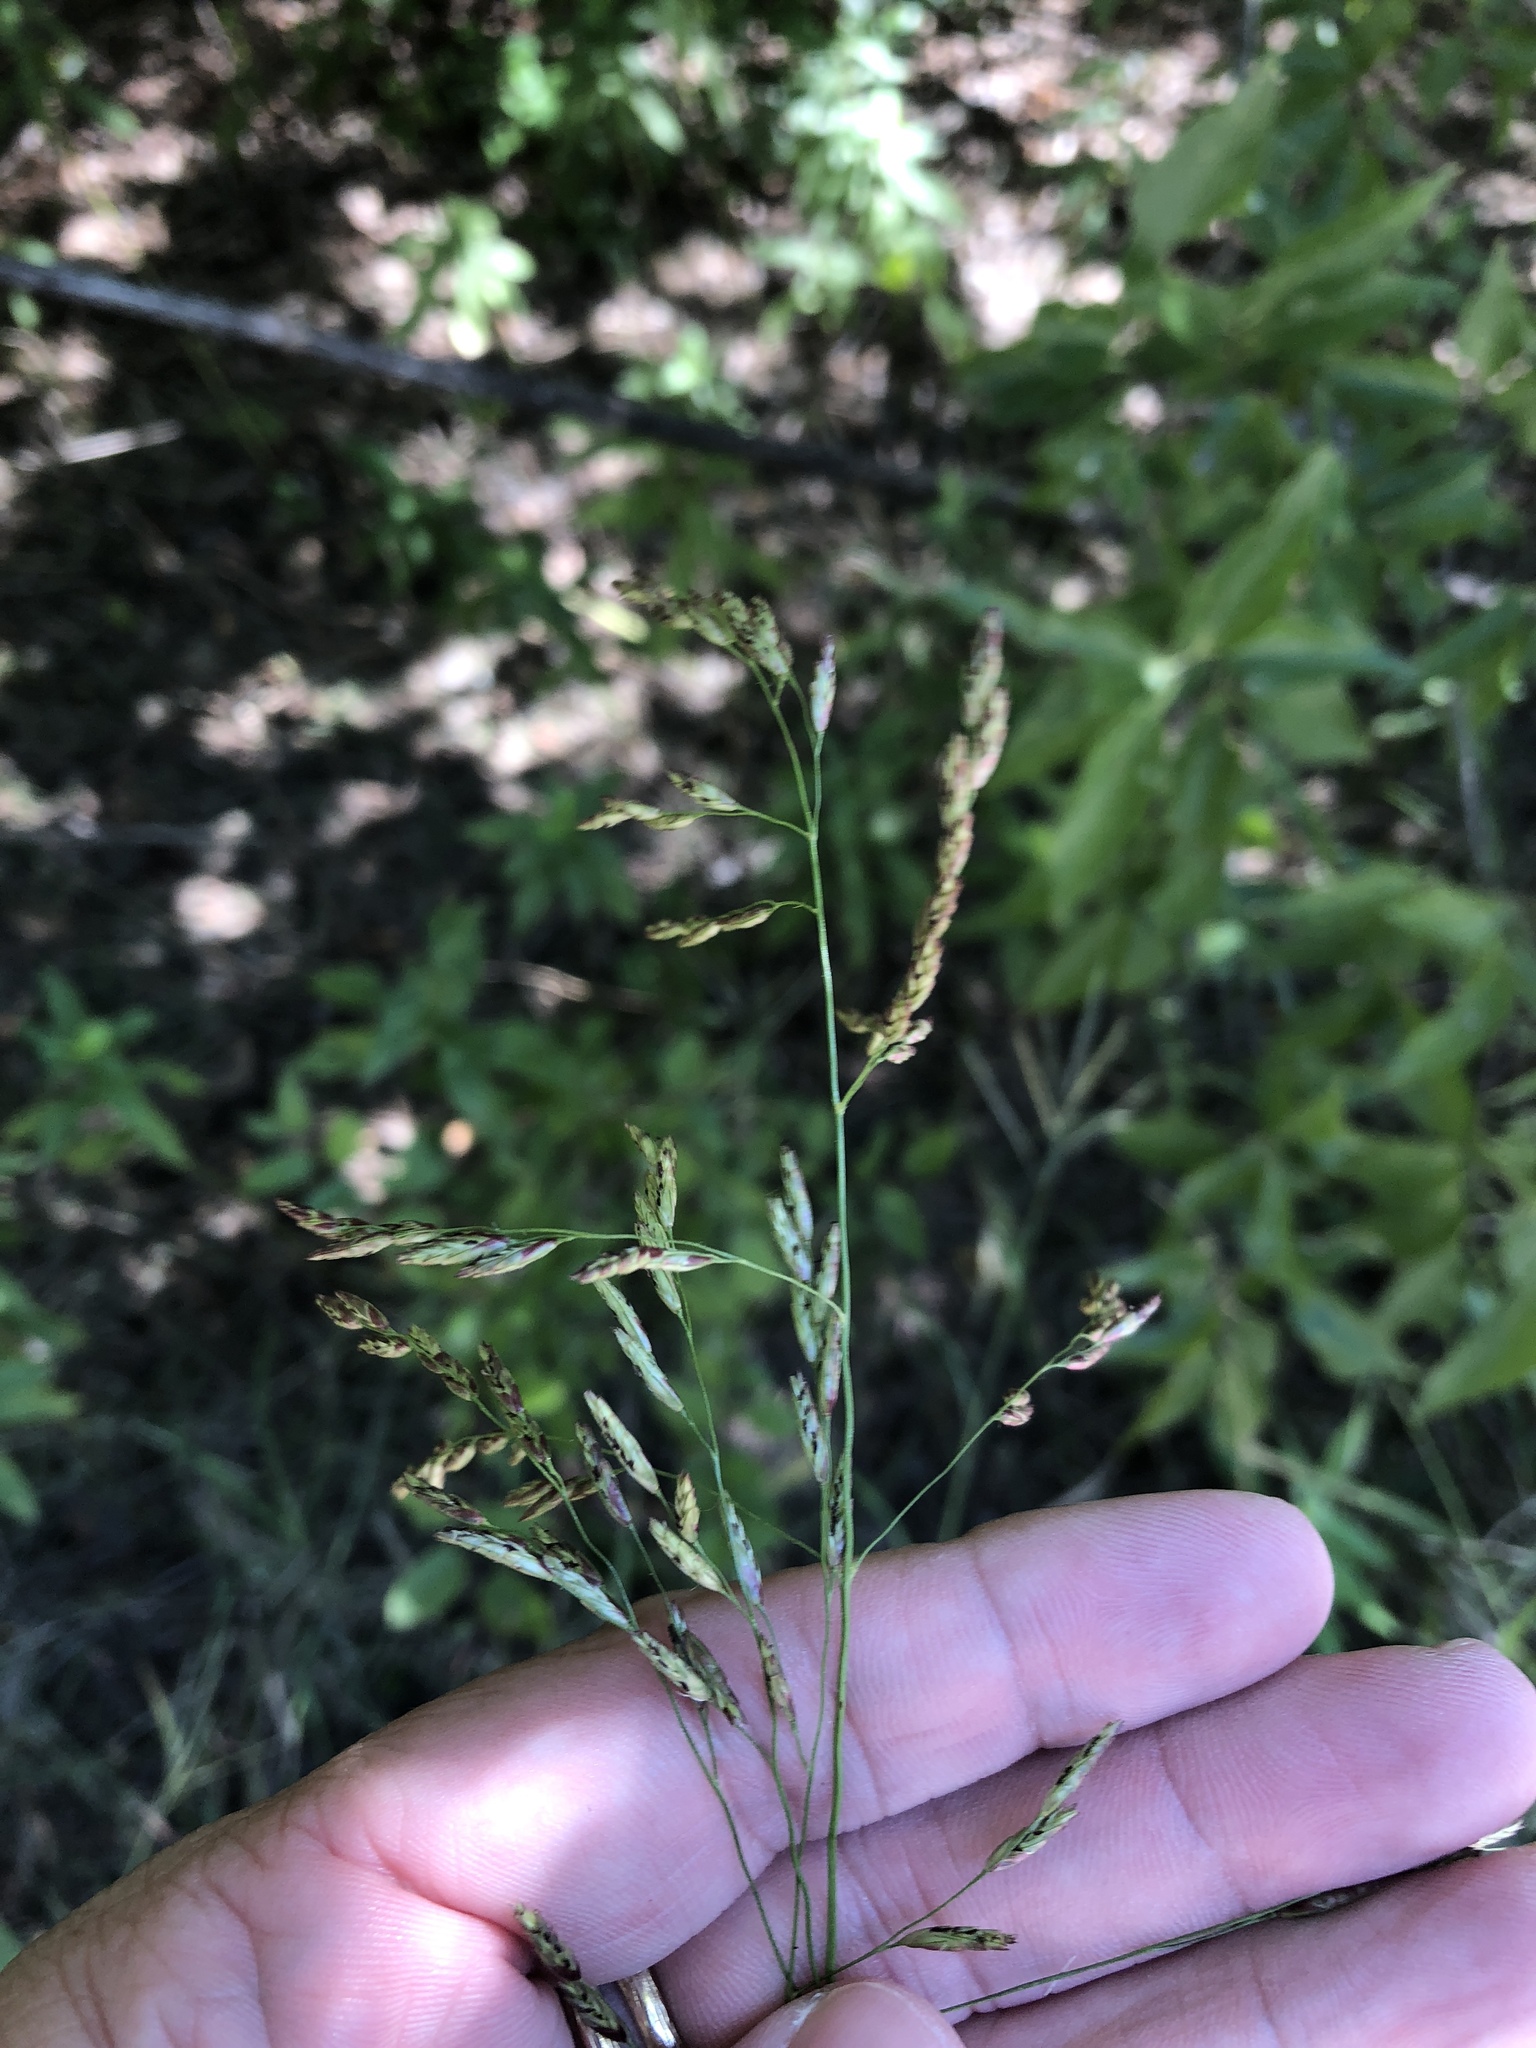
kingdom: Plantae
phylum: Tracheophyta
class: Liliopsida
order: Poales
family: Poaceae
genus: Tridens
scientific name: Tridens flavus
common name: Purpletop
